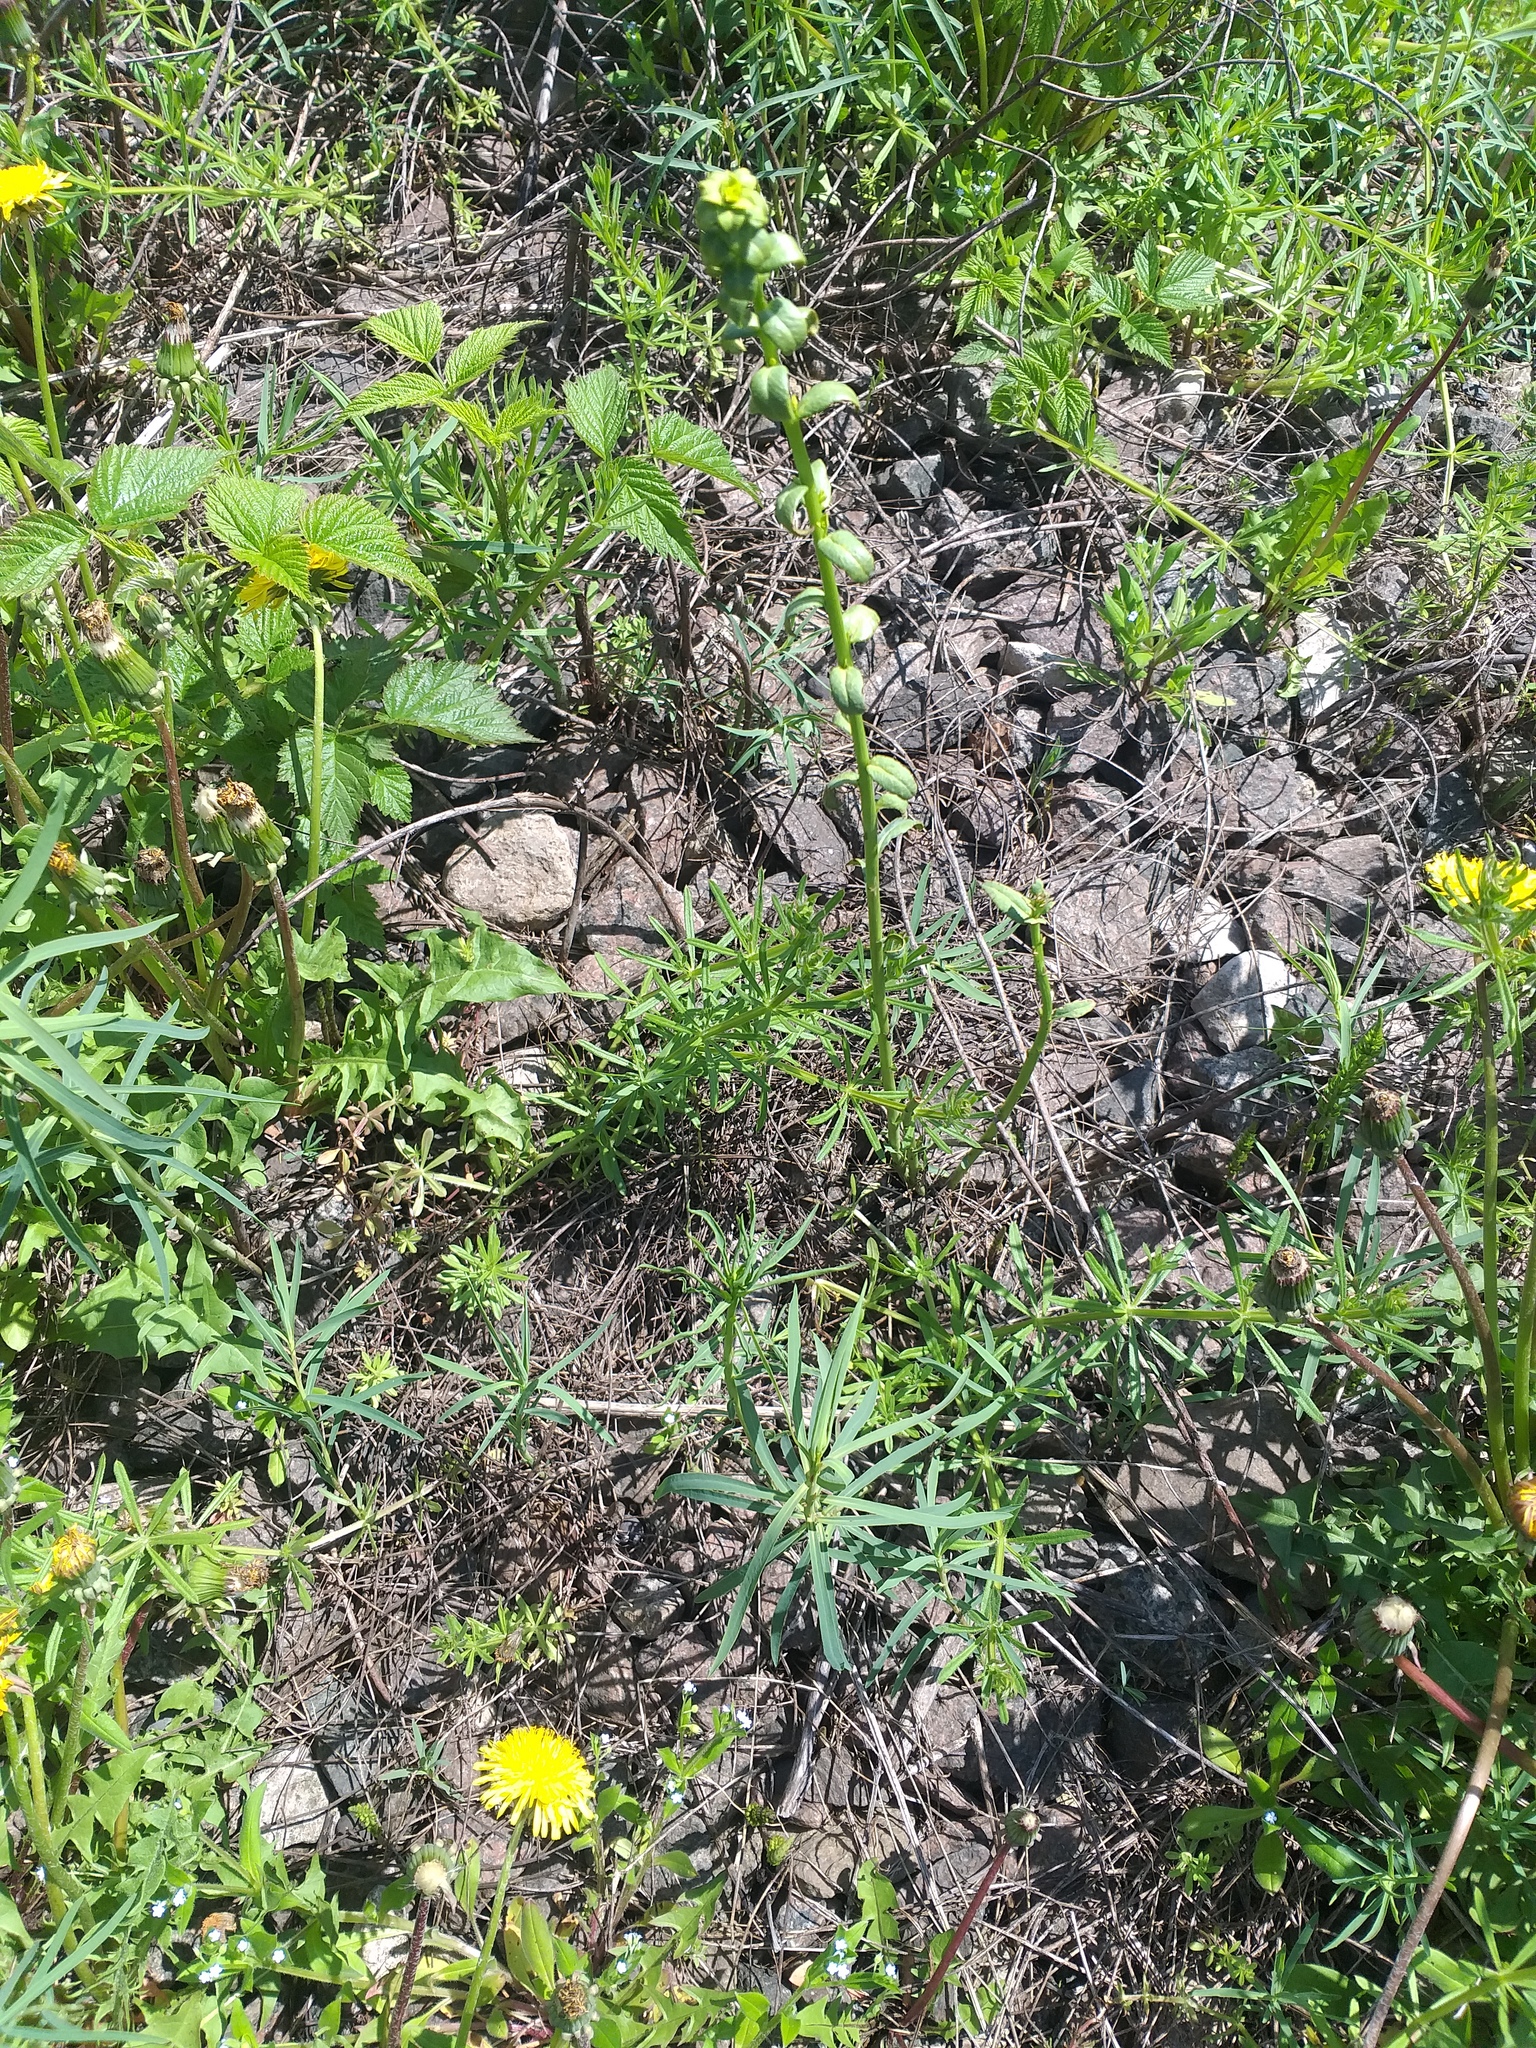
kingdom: Plantae
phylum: Tracheophyta
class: Magnoliopsida
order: Malpighiales
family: Euphorbiaceae
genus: Euphorbia
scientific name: Euphorbia virgata
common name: Leafy spurge
